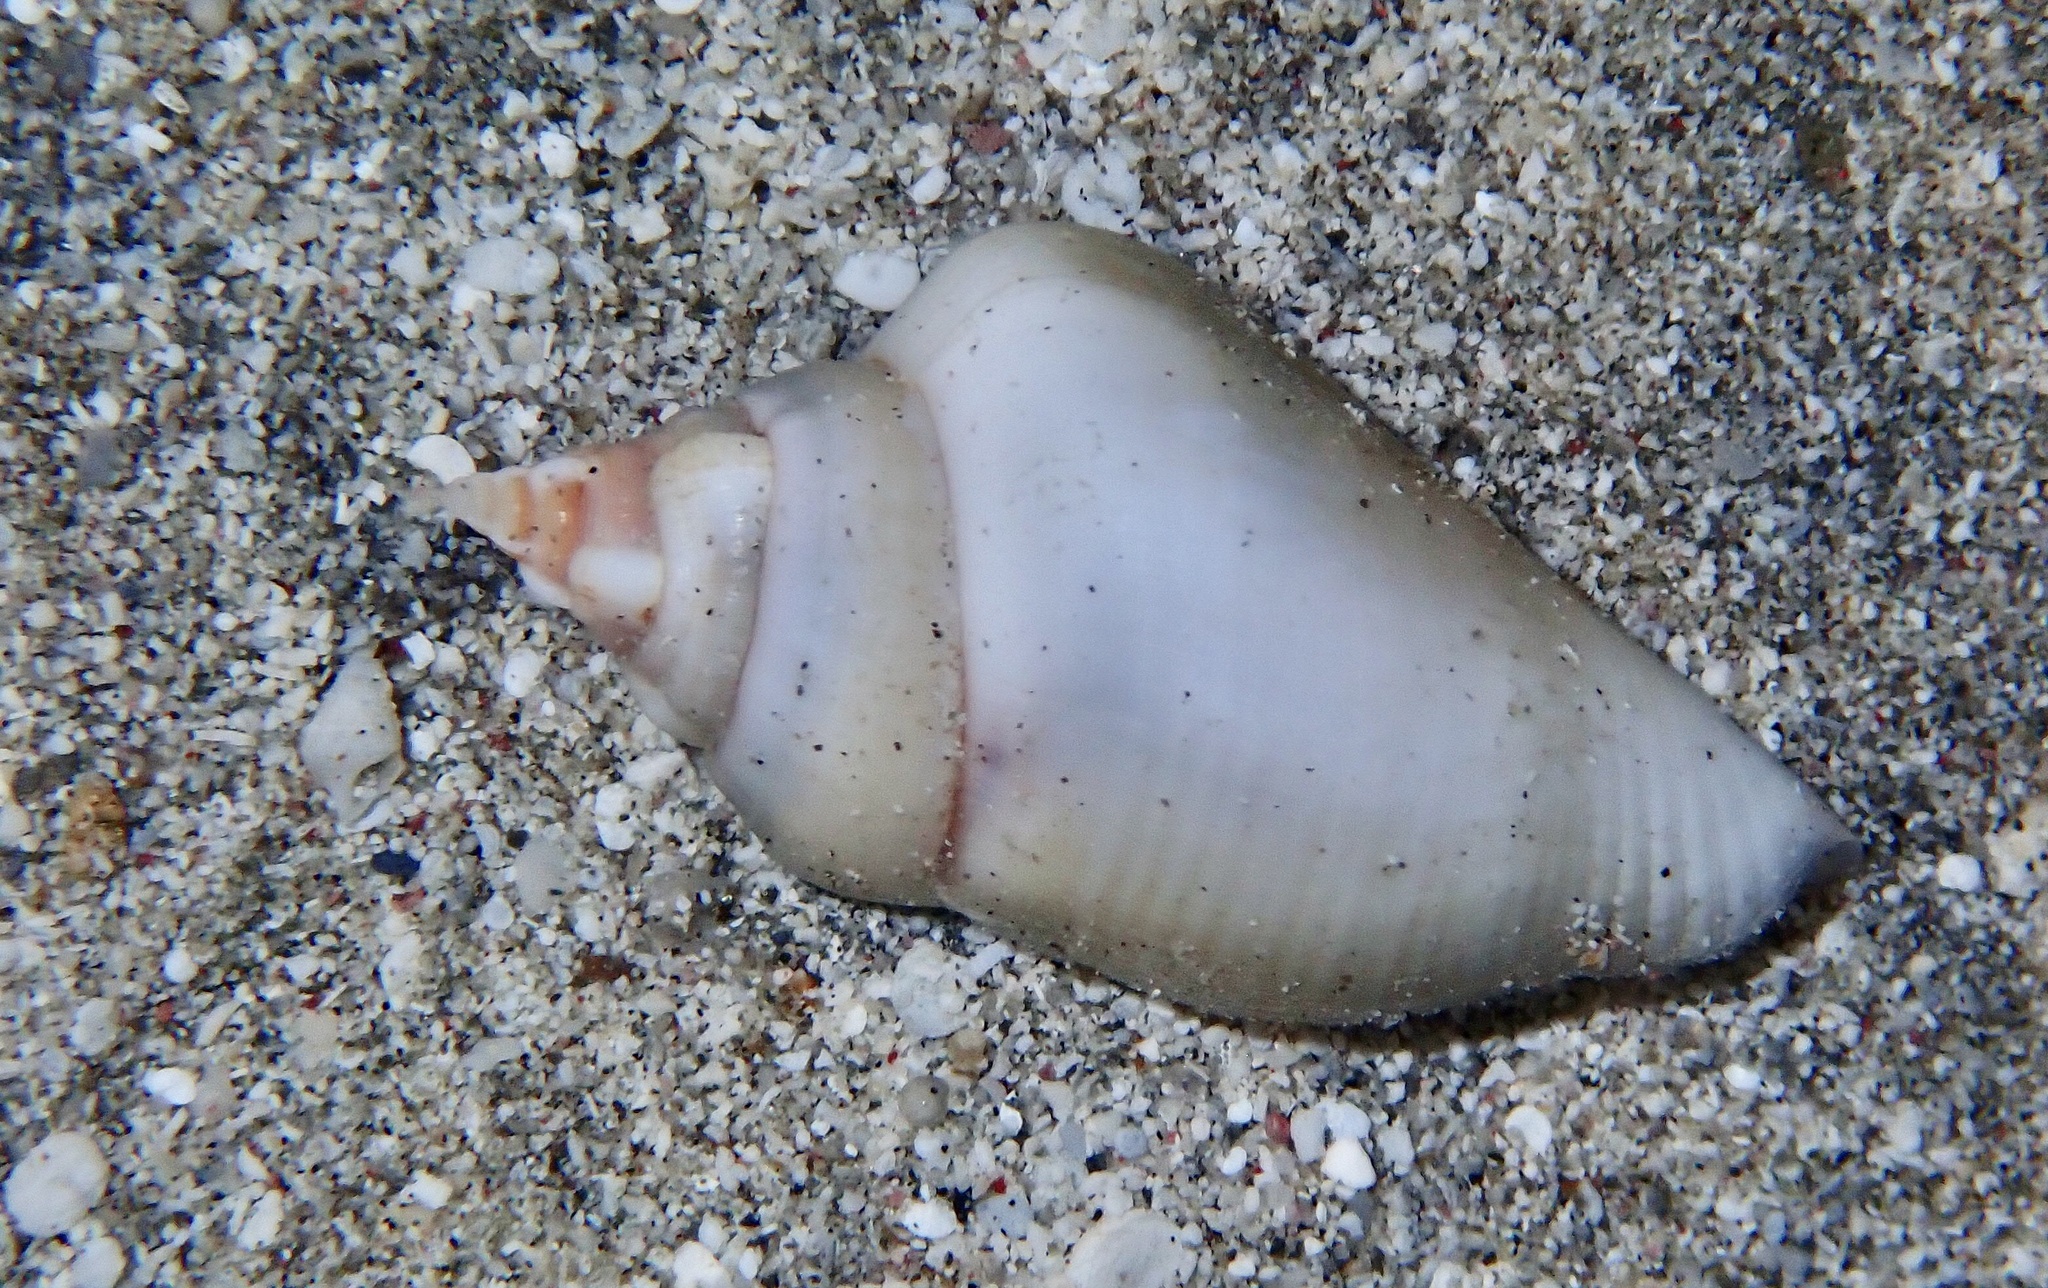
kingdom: Animalia
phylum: Mollusca
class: Gastropoda
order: Littorinimorpha
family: Strombidae
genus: Gibberulus
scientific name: Gibberulus gibberulus
